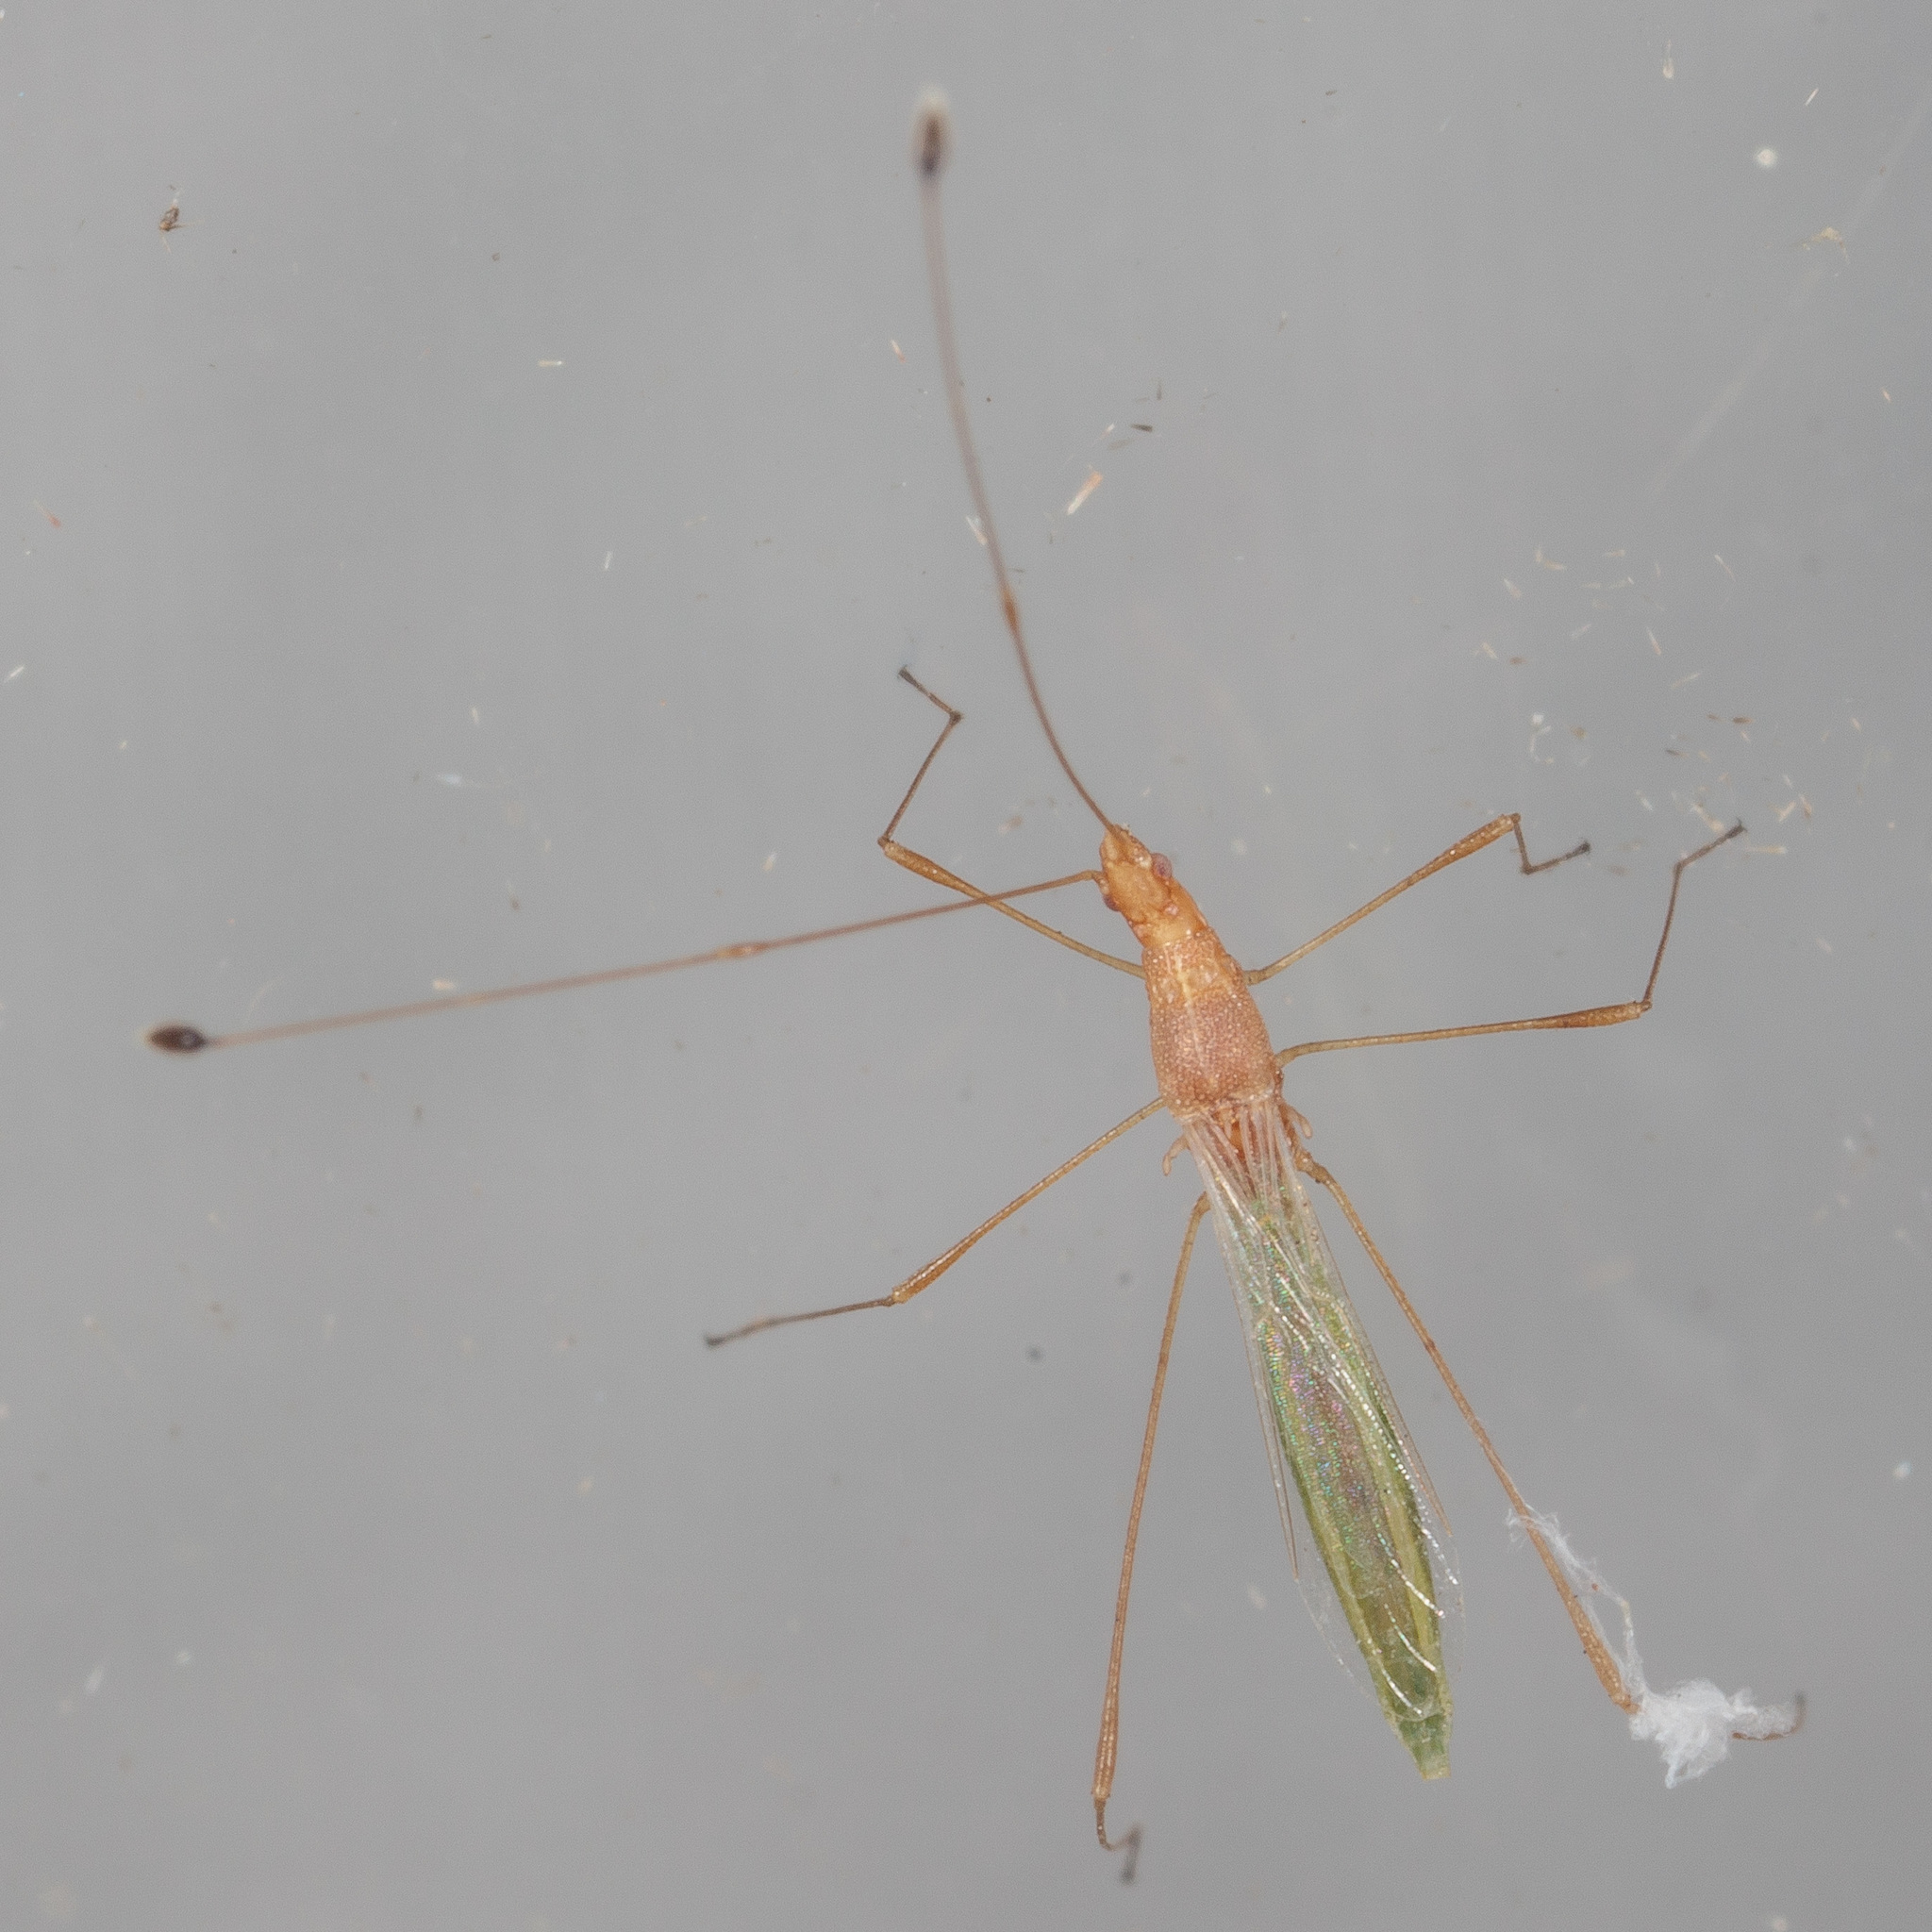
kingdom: Animalia
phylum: Arthropoda
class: Insecta
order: Hemiptera
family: Berytidae
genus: Metacanthus
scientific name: Metacanthus multispinus
